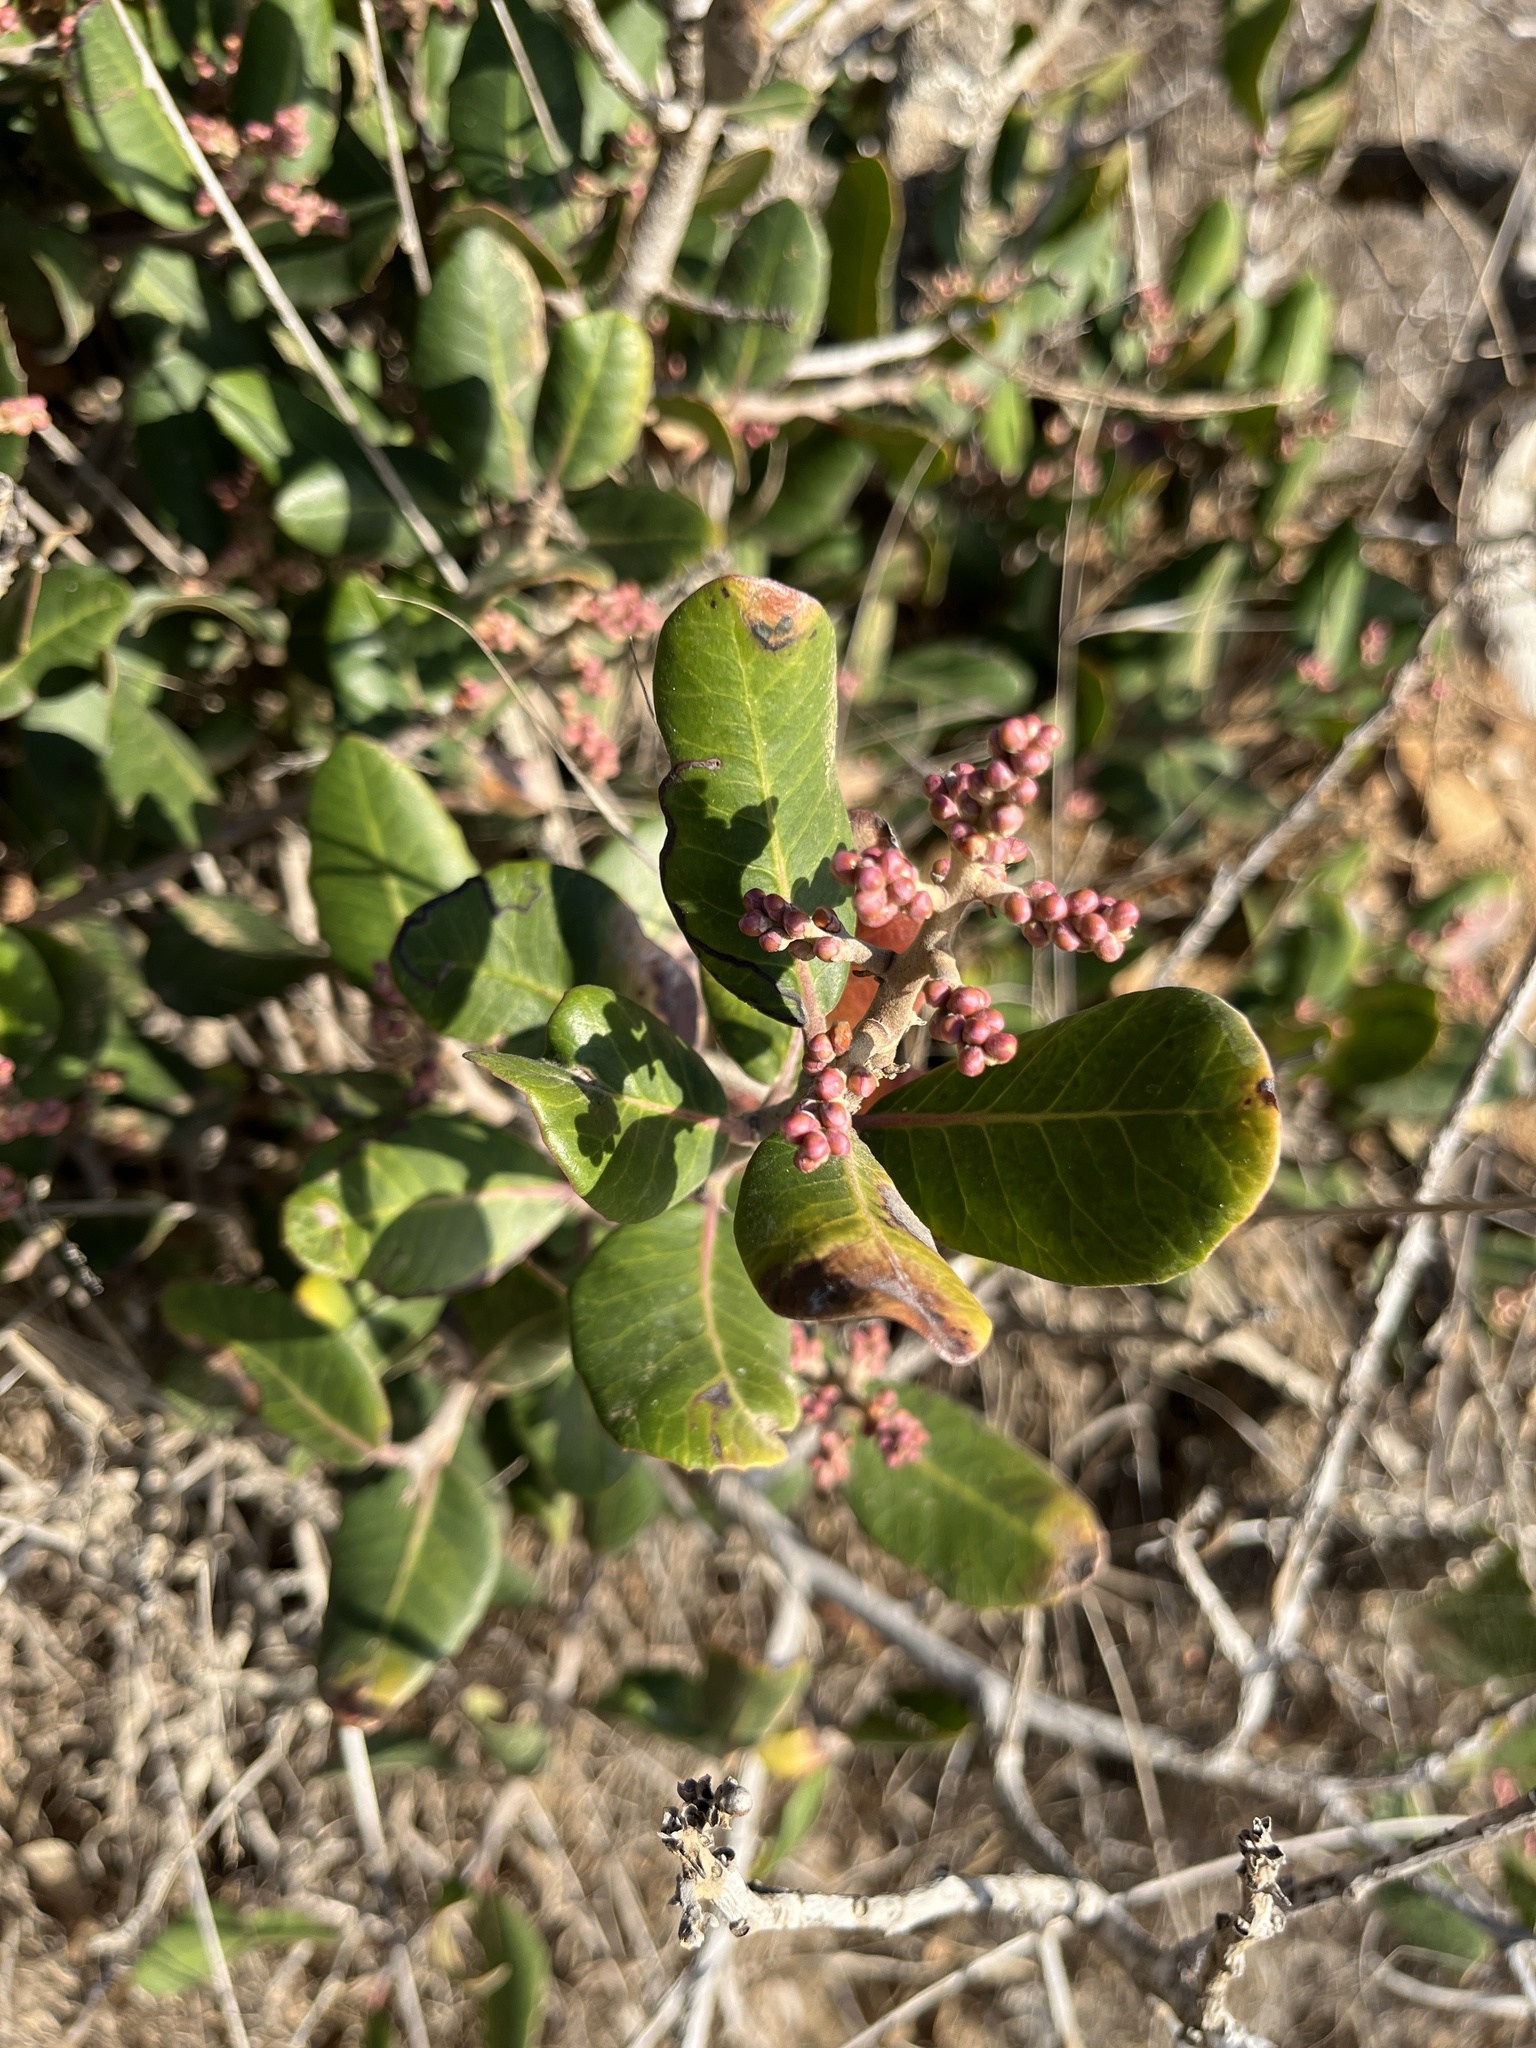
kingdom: Plantae
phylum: Tracheophyta
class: Magnoliopsida
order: Sapindales
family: Anacardiaceae
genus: Rhus
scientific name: Rhus integrifolia
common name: Lemonade sumac
